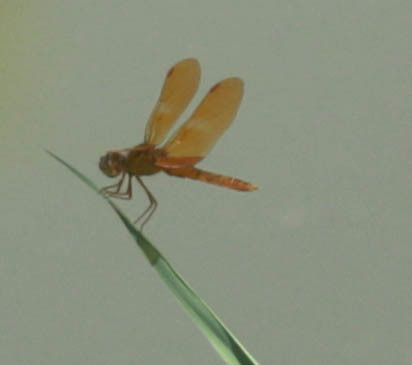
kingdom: Animalia
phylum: Arthropoda
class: Insecta
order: Odonata
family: Libellulidae
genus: Perithemis
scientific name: Perithemis intensa
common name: Mexican amberwing
